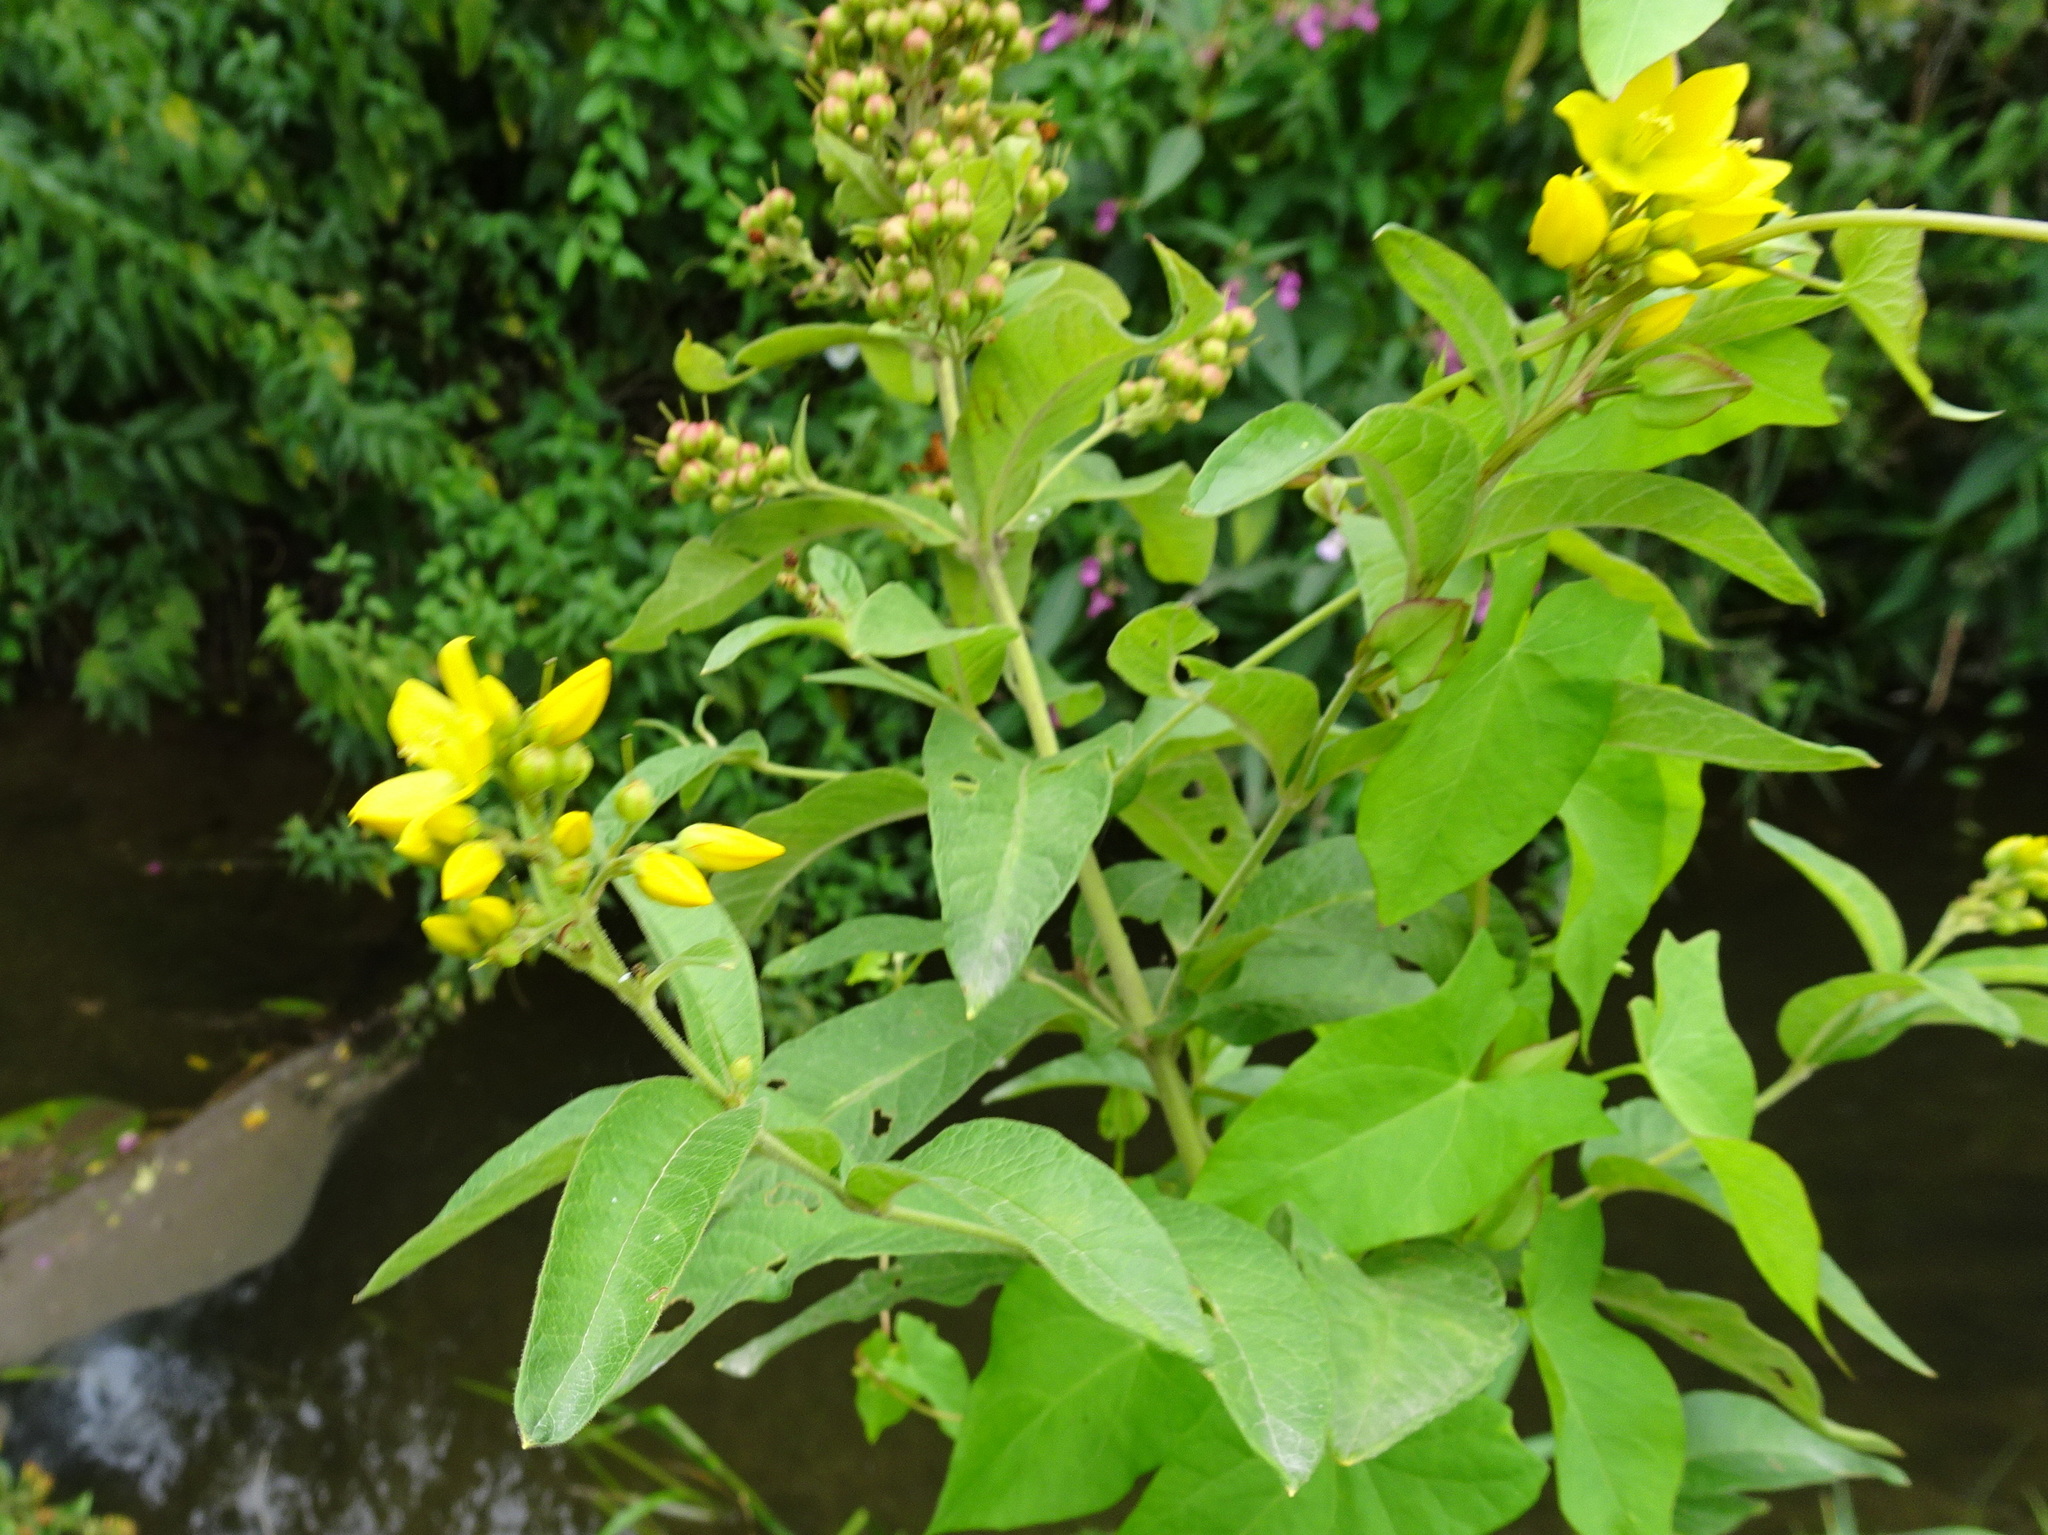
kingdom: Plantae
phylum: Tracheophyta
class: Magnoliopsida
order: Ericales
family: Primulaceae
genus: Lysimachia
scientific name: Lysimachia vulgaris
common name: Yellow loosestrife
